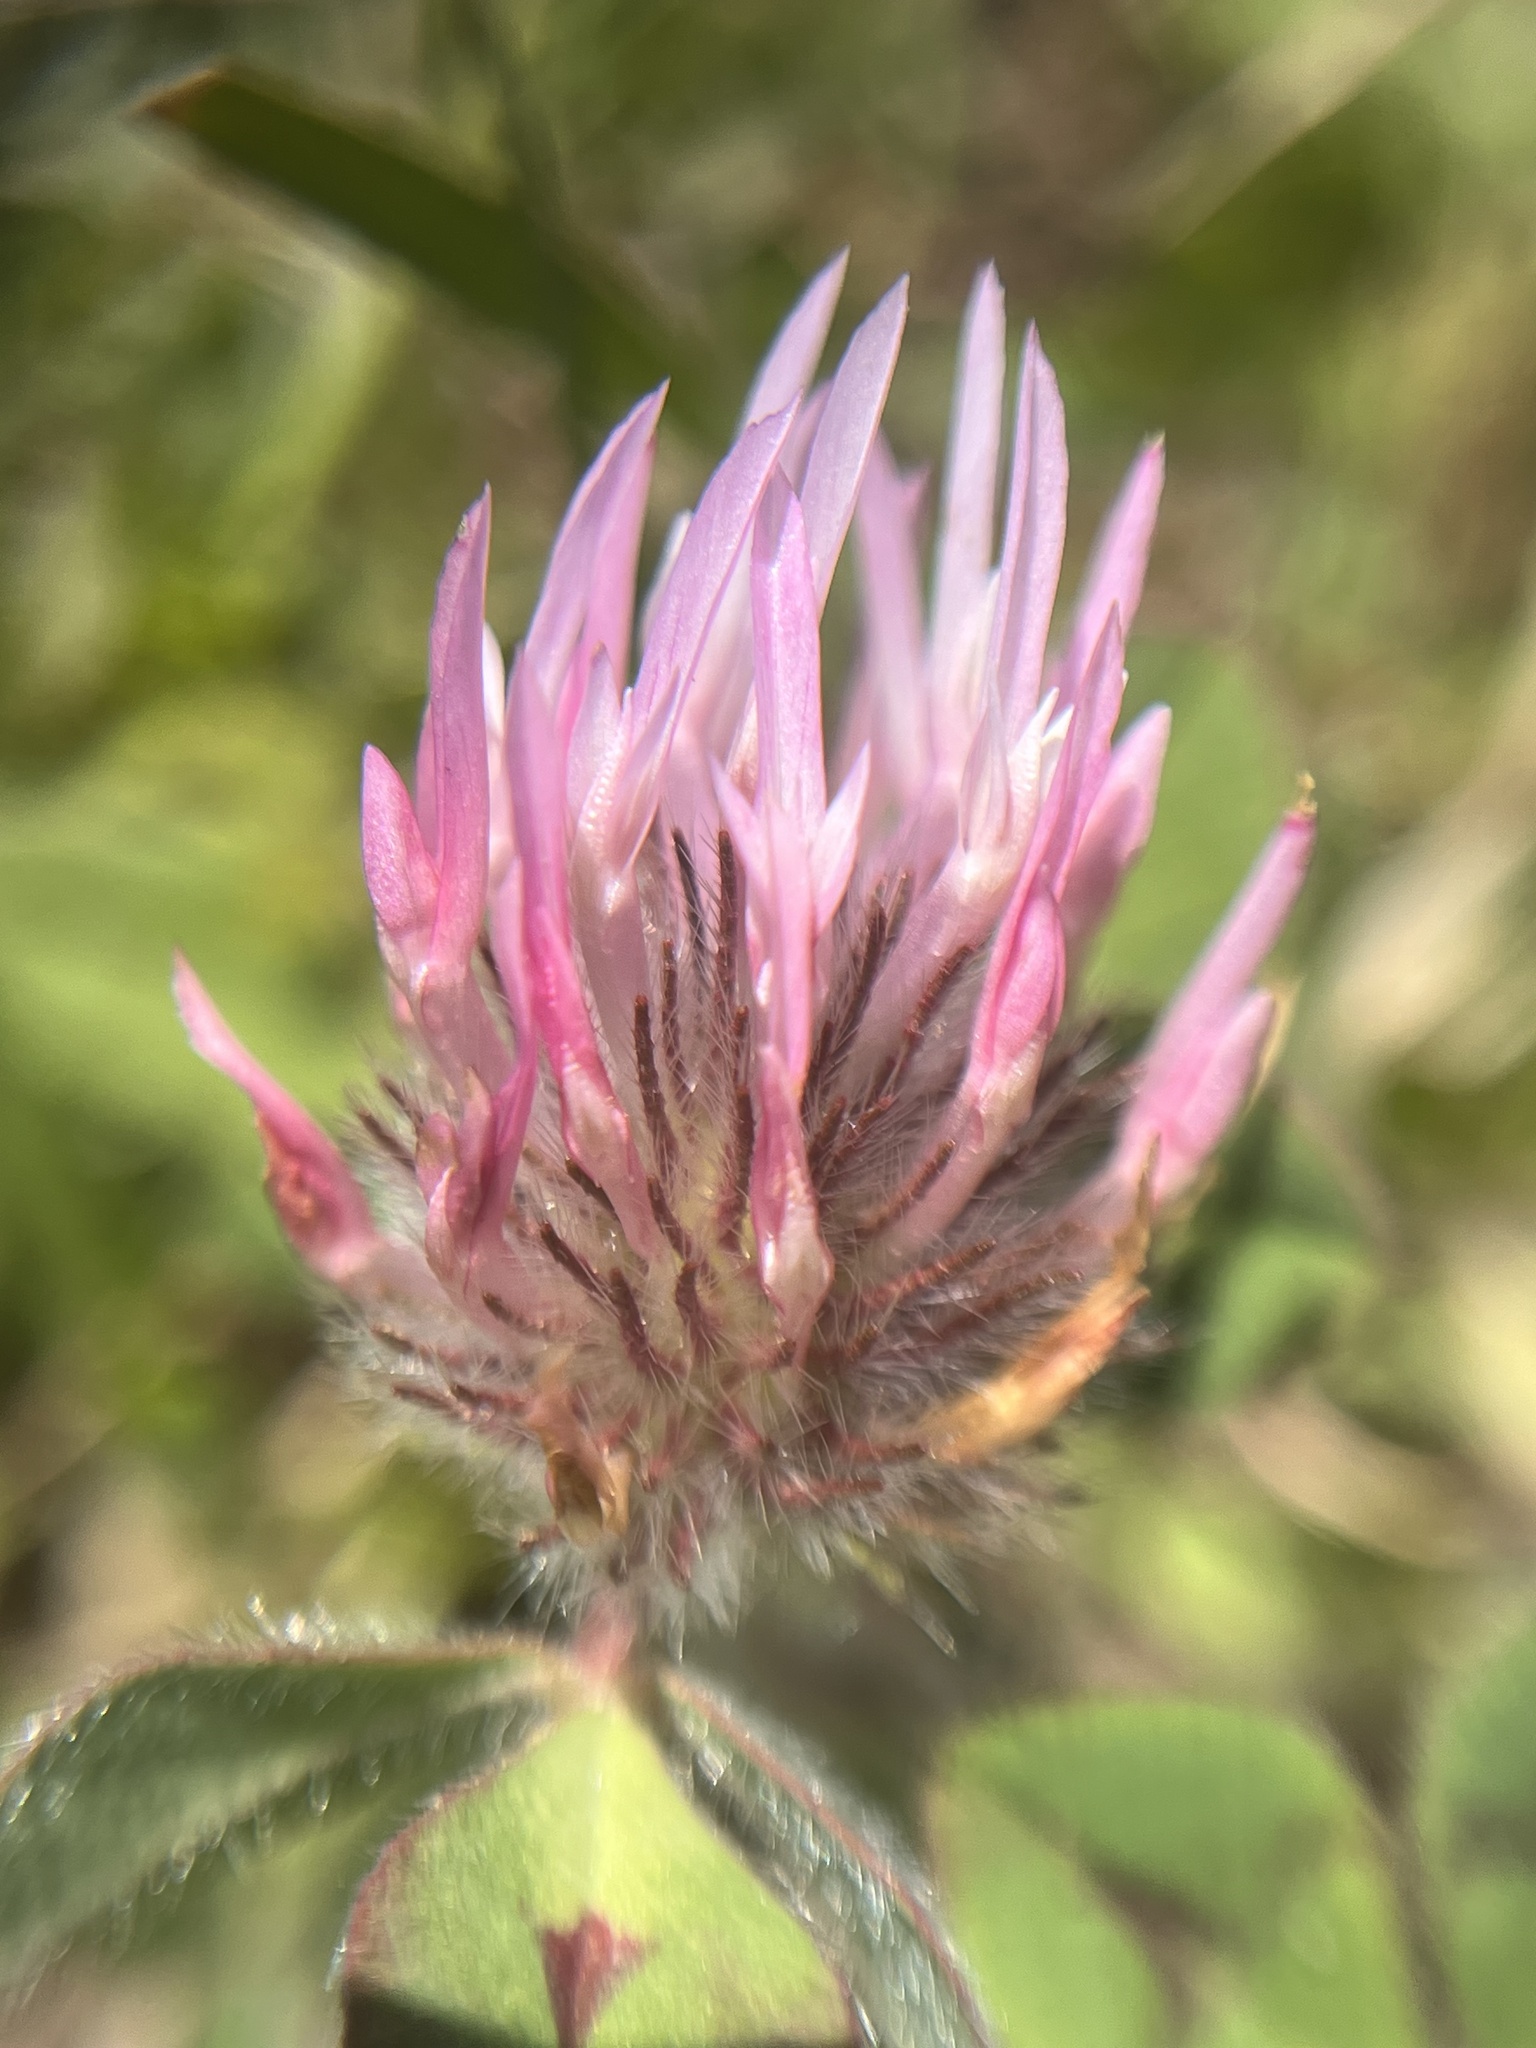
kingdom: Plantae
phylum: Tracheophyta
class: Magnoliopsida
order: Fabales
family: Fabaceae
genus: Trifolium
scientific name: Trifolium hirtum
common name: Rose clover
